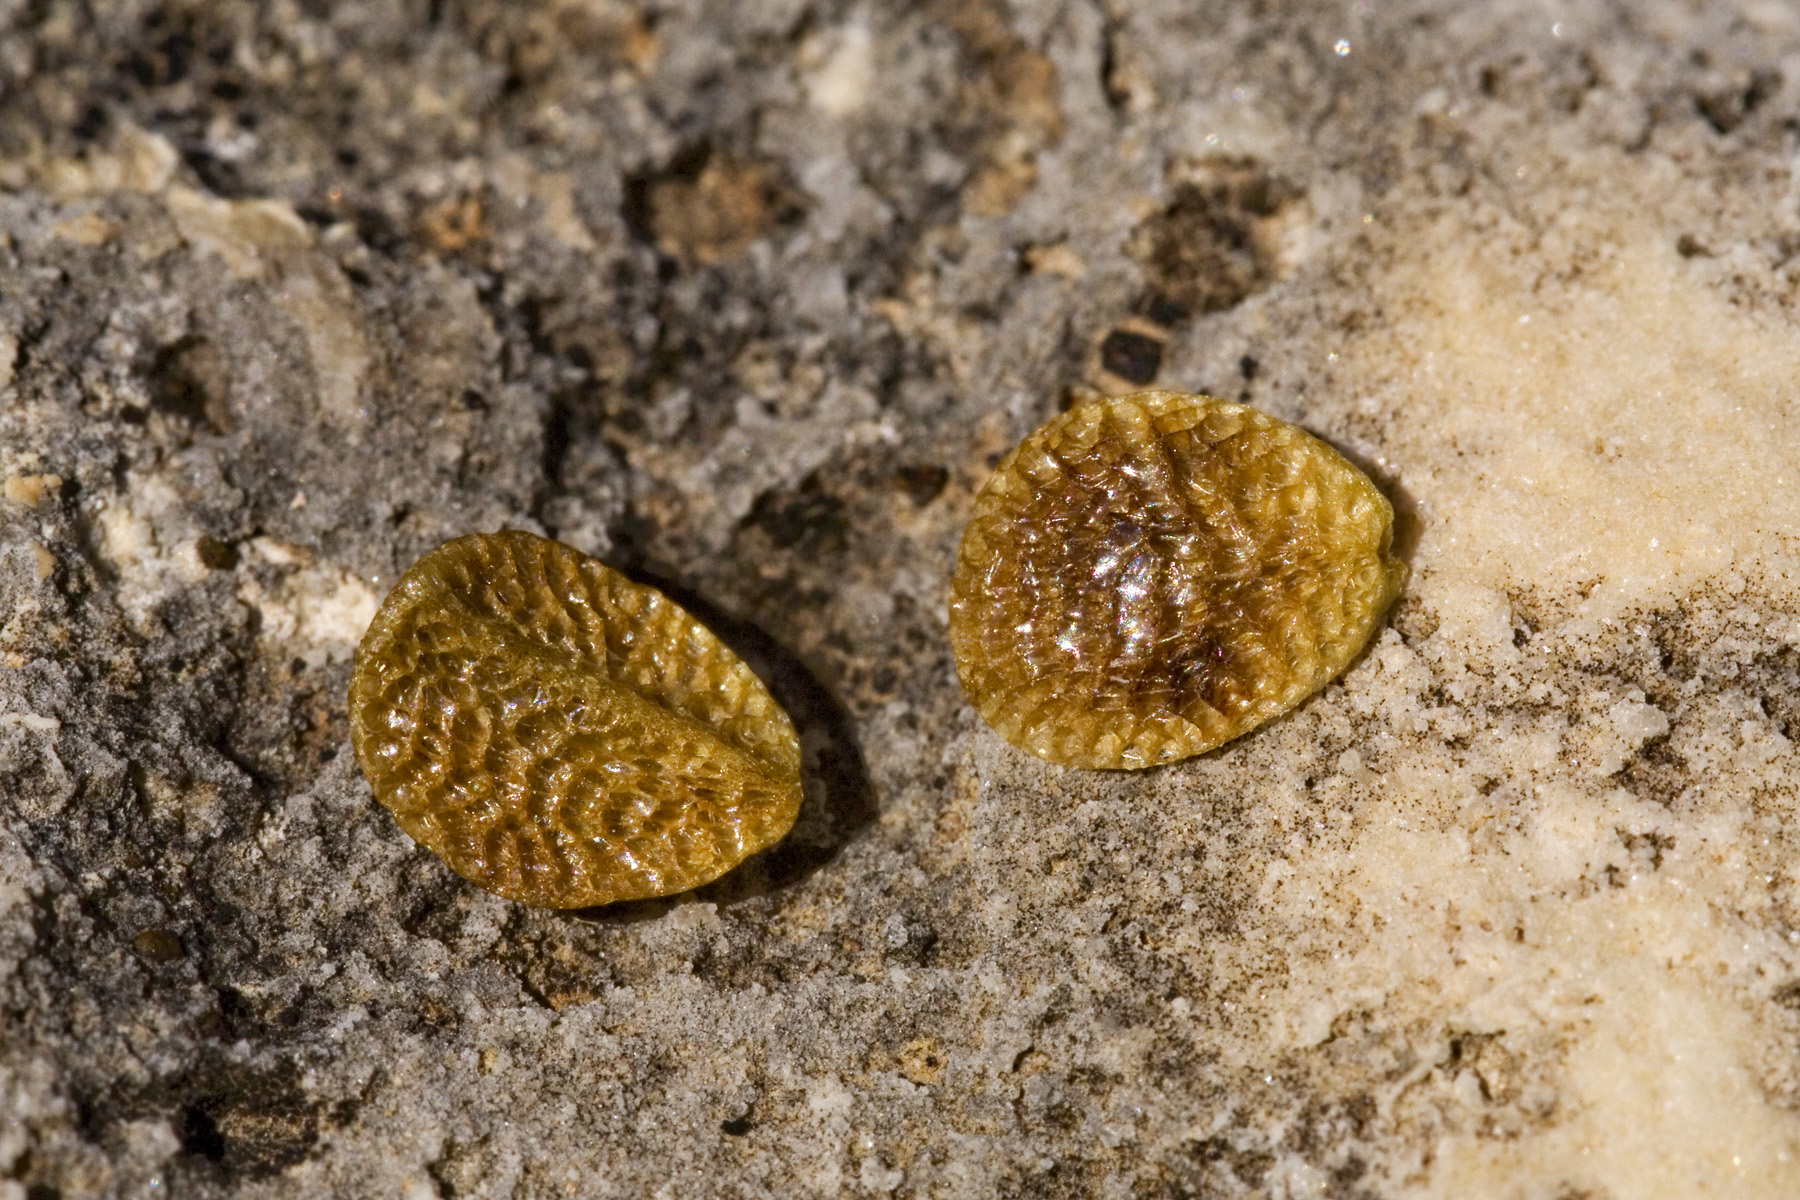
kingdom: Plantae
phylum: Tracheophyta
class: Magnoliopsida
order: Lamiales
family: Oleaceae
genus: Menodora
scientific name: Menodora longiflora
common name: Showy menodora
